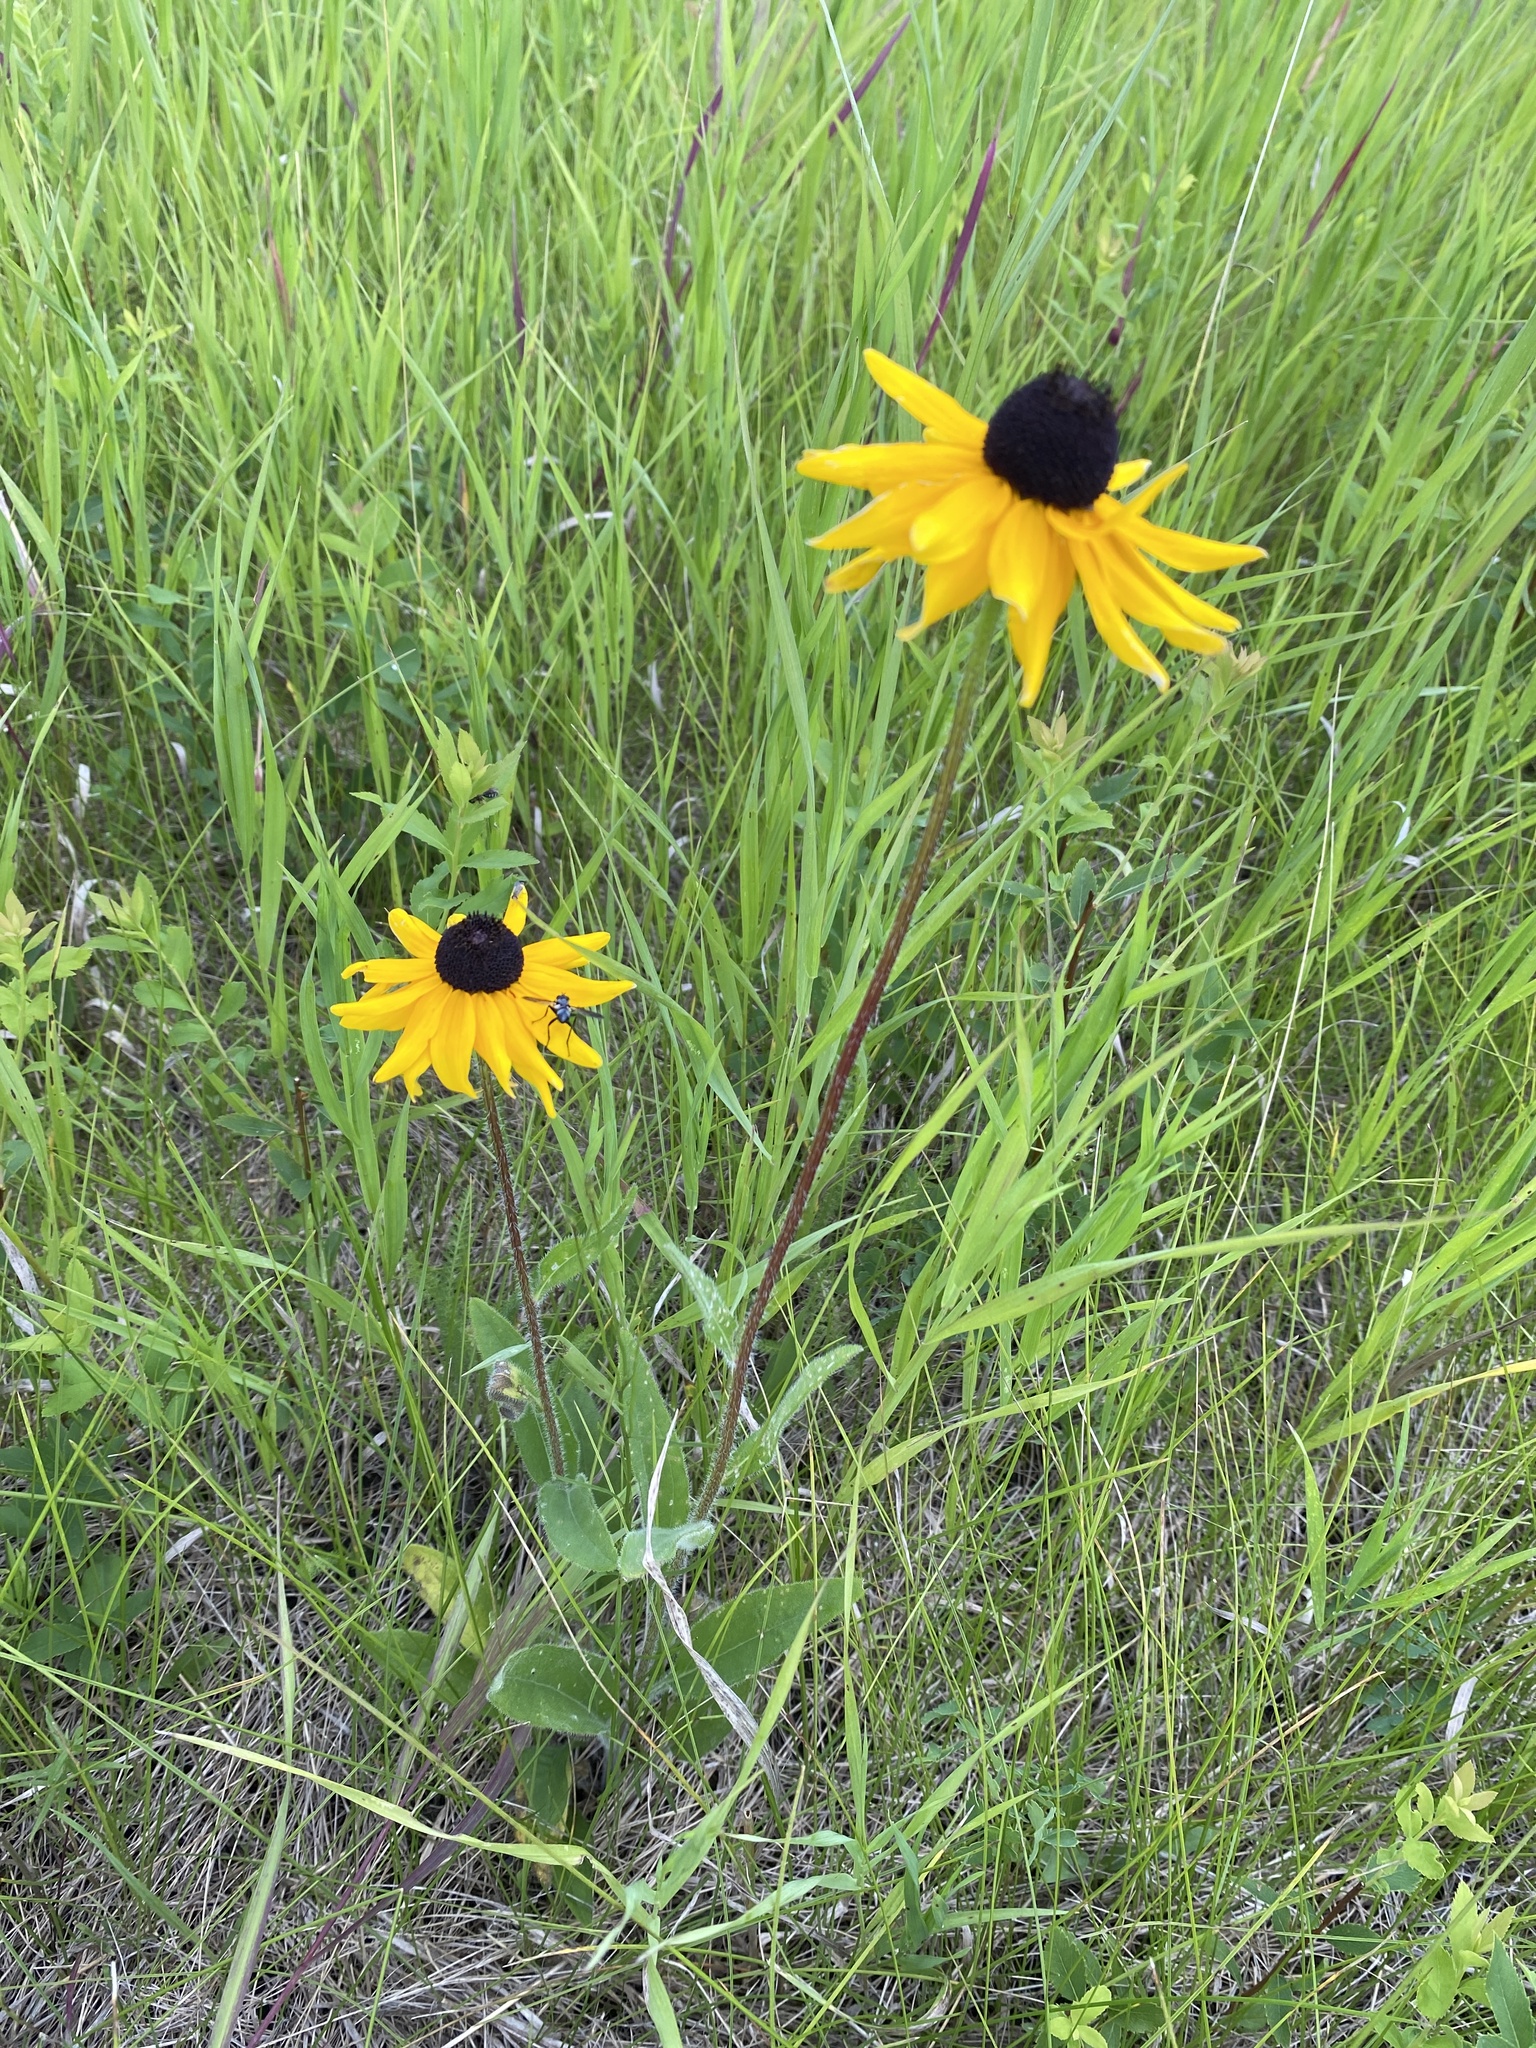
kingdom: Plantae
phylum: Tracheophyta
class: Magnoliopsida
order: Asterales
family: Asteraceae
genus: Rudbeckia
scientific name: Rudbeckia hirta
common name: Black-eyed-susan
